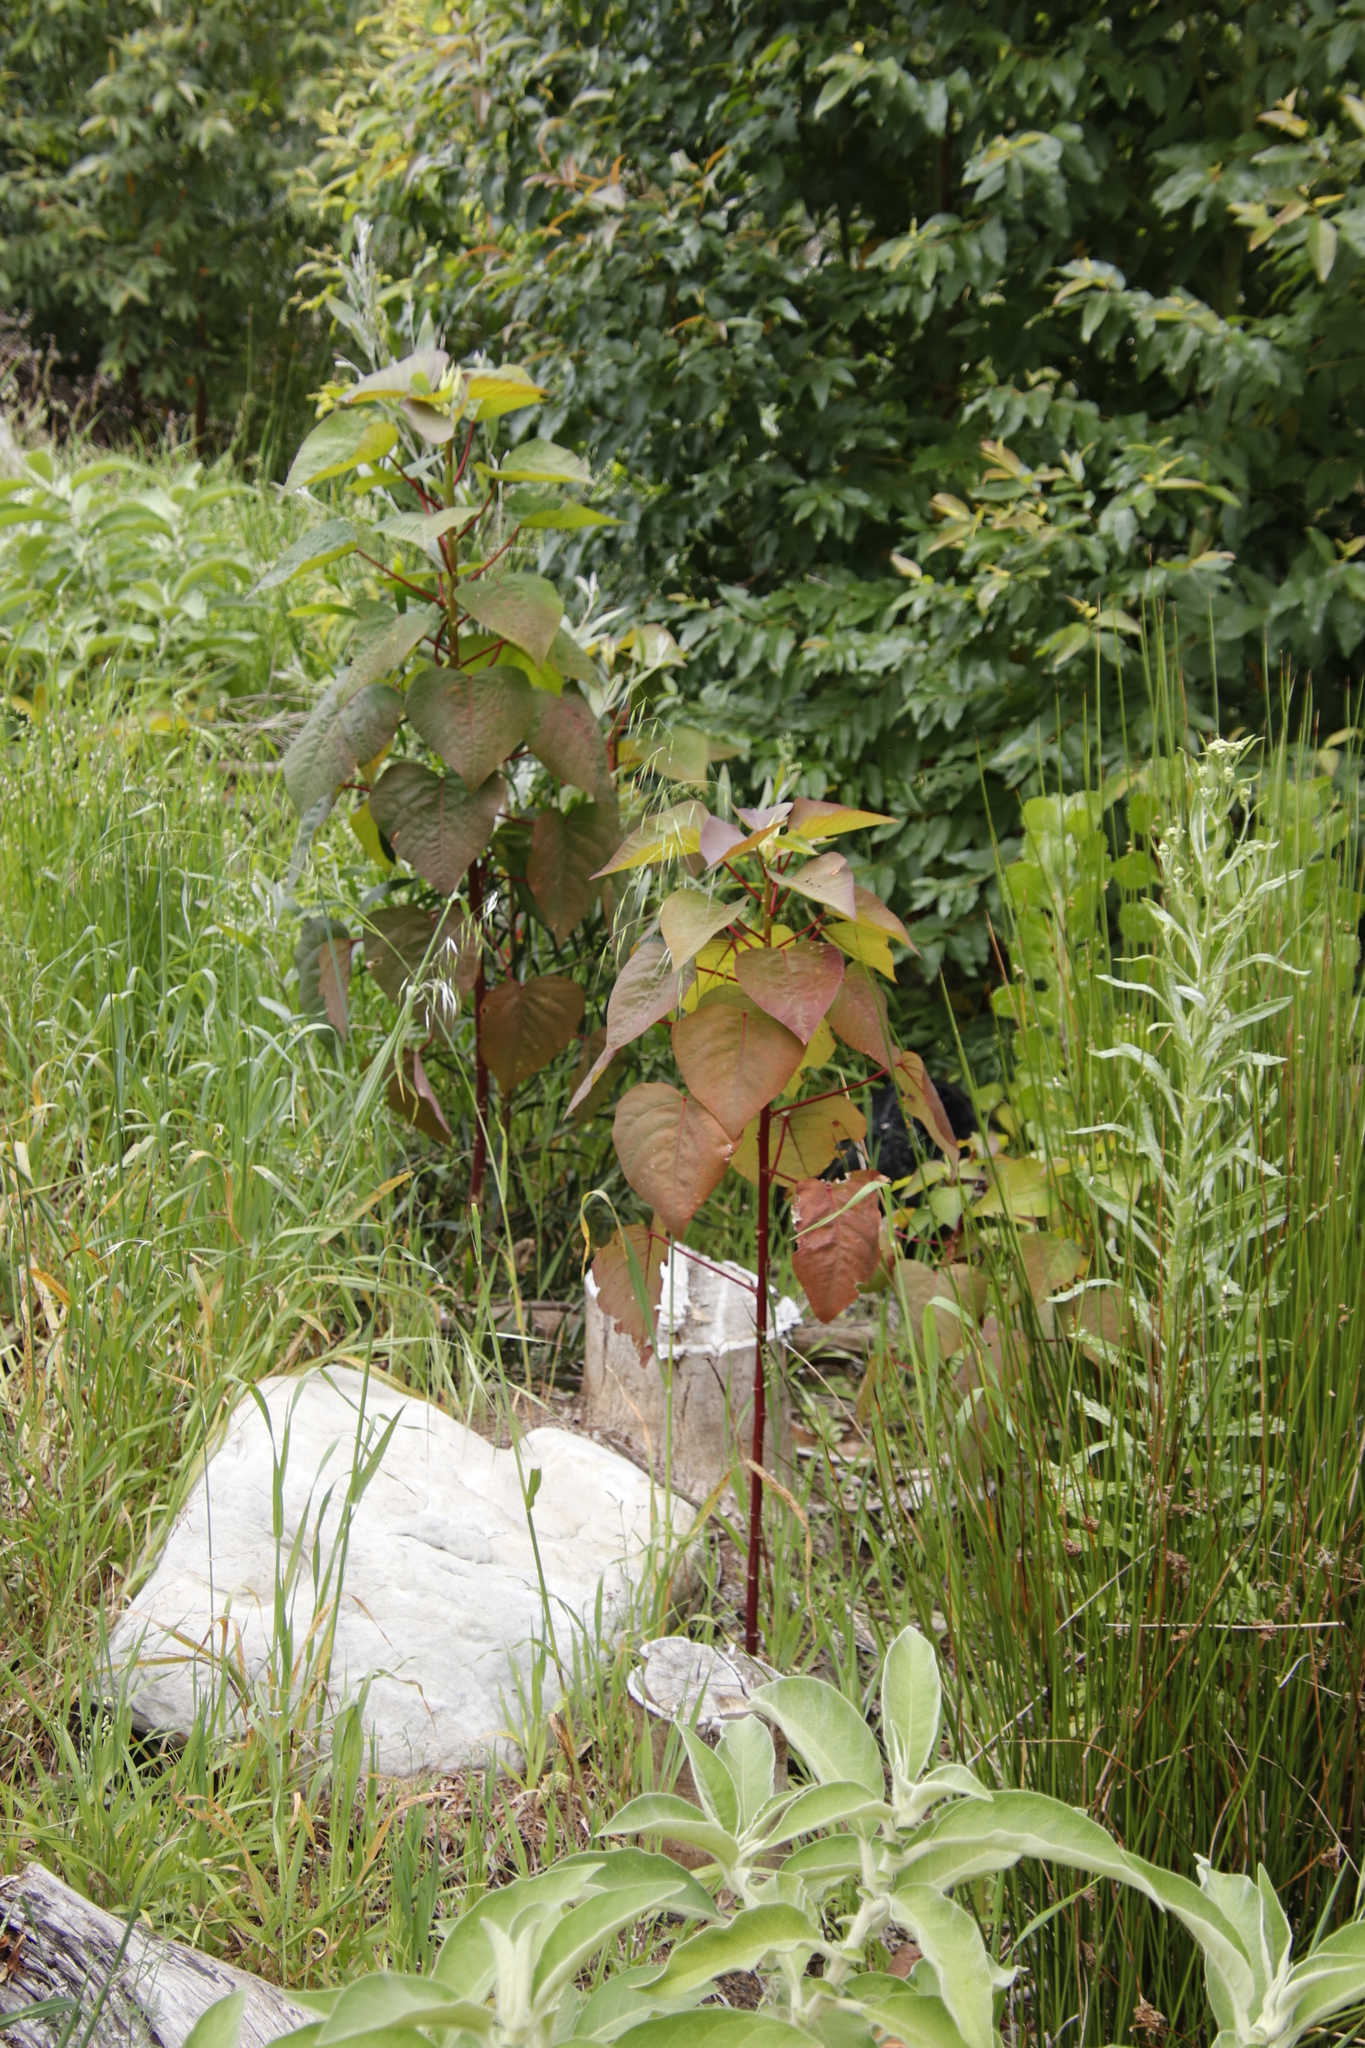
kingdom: Plantae
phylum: Tracheophyta
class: Magnoliopsida
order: Malpighiales
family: Euphorbiaceae
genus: Homalanthus
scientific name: Homalanthus populifolius
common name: Queensland poplar
